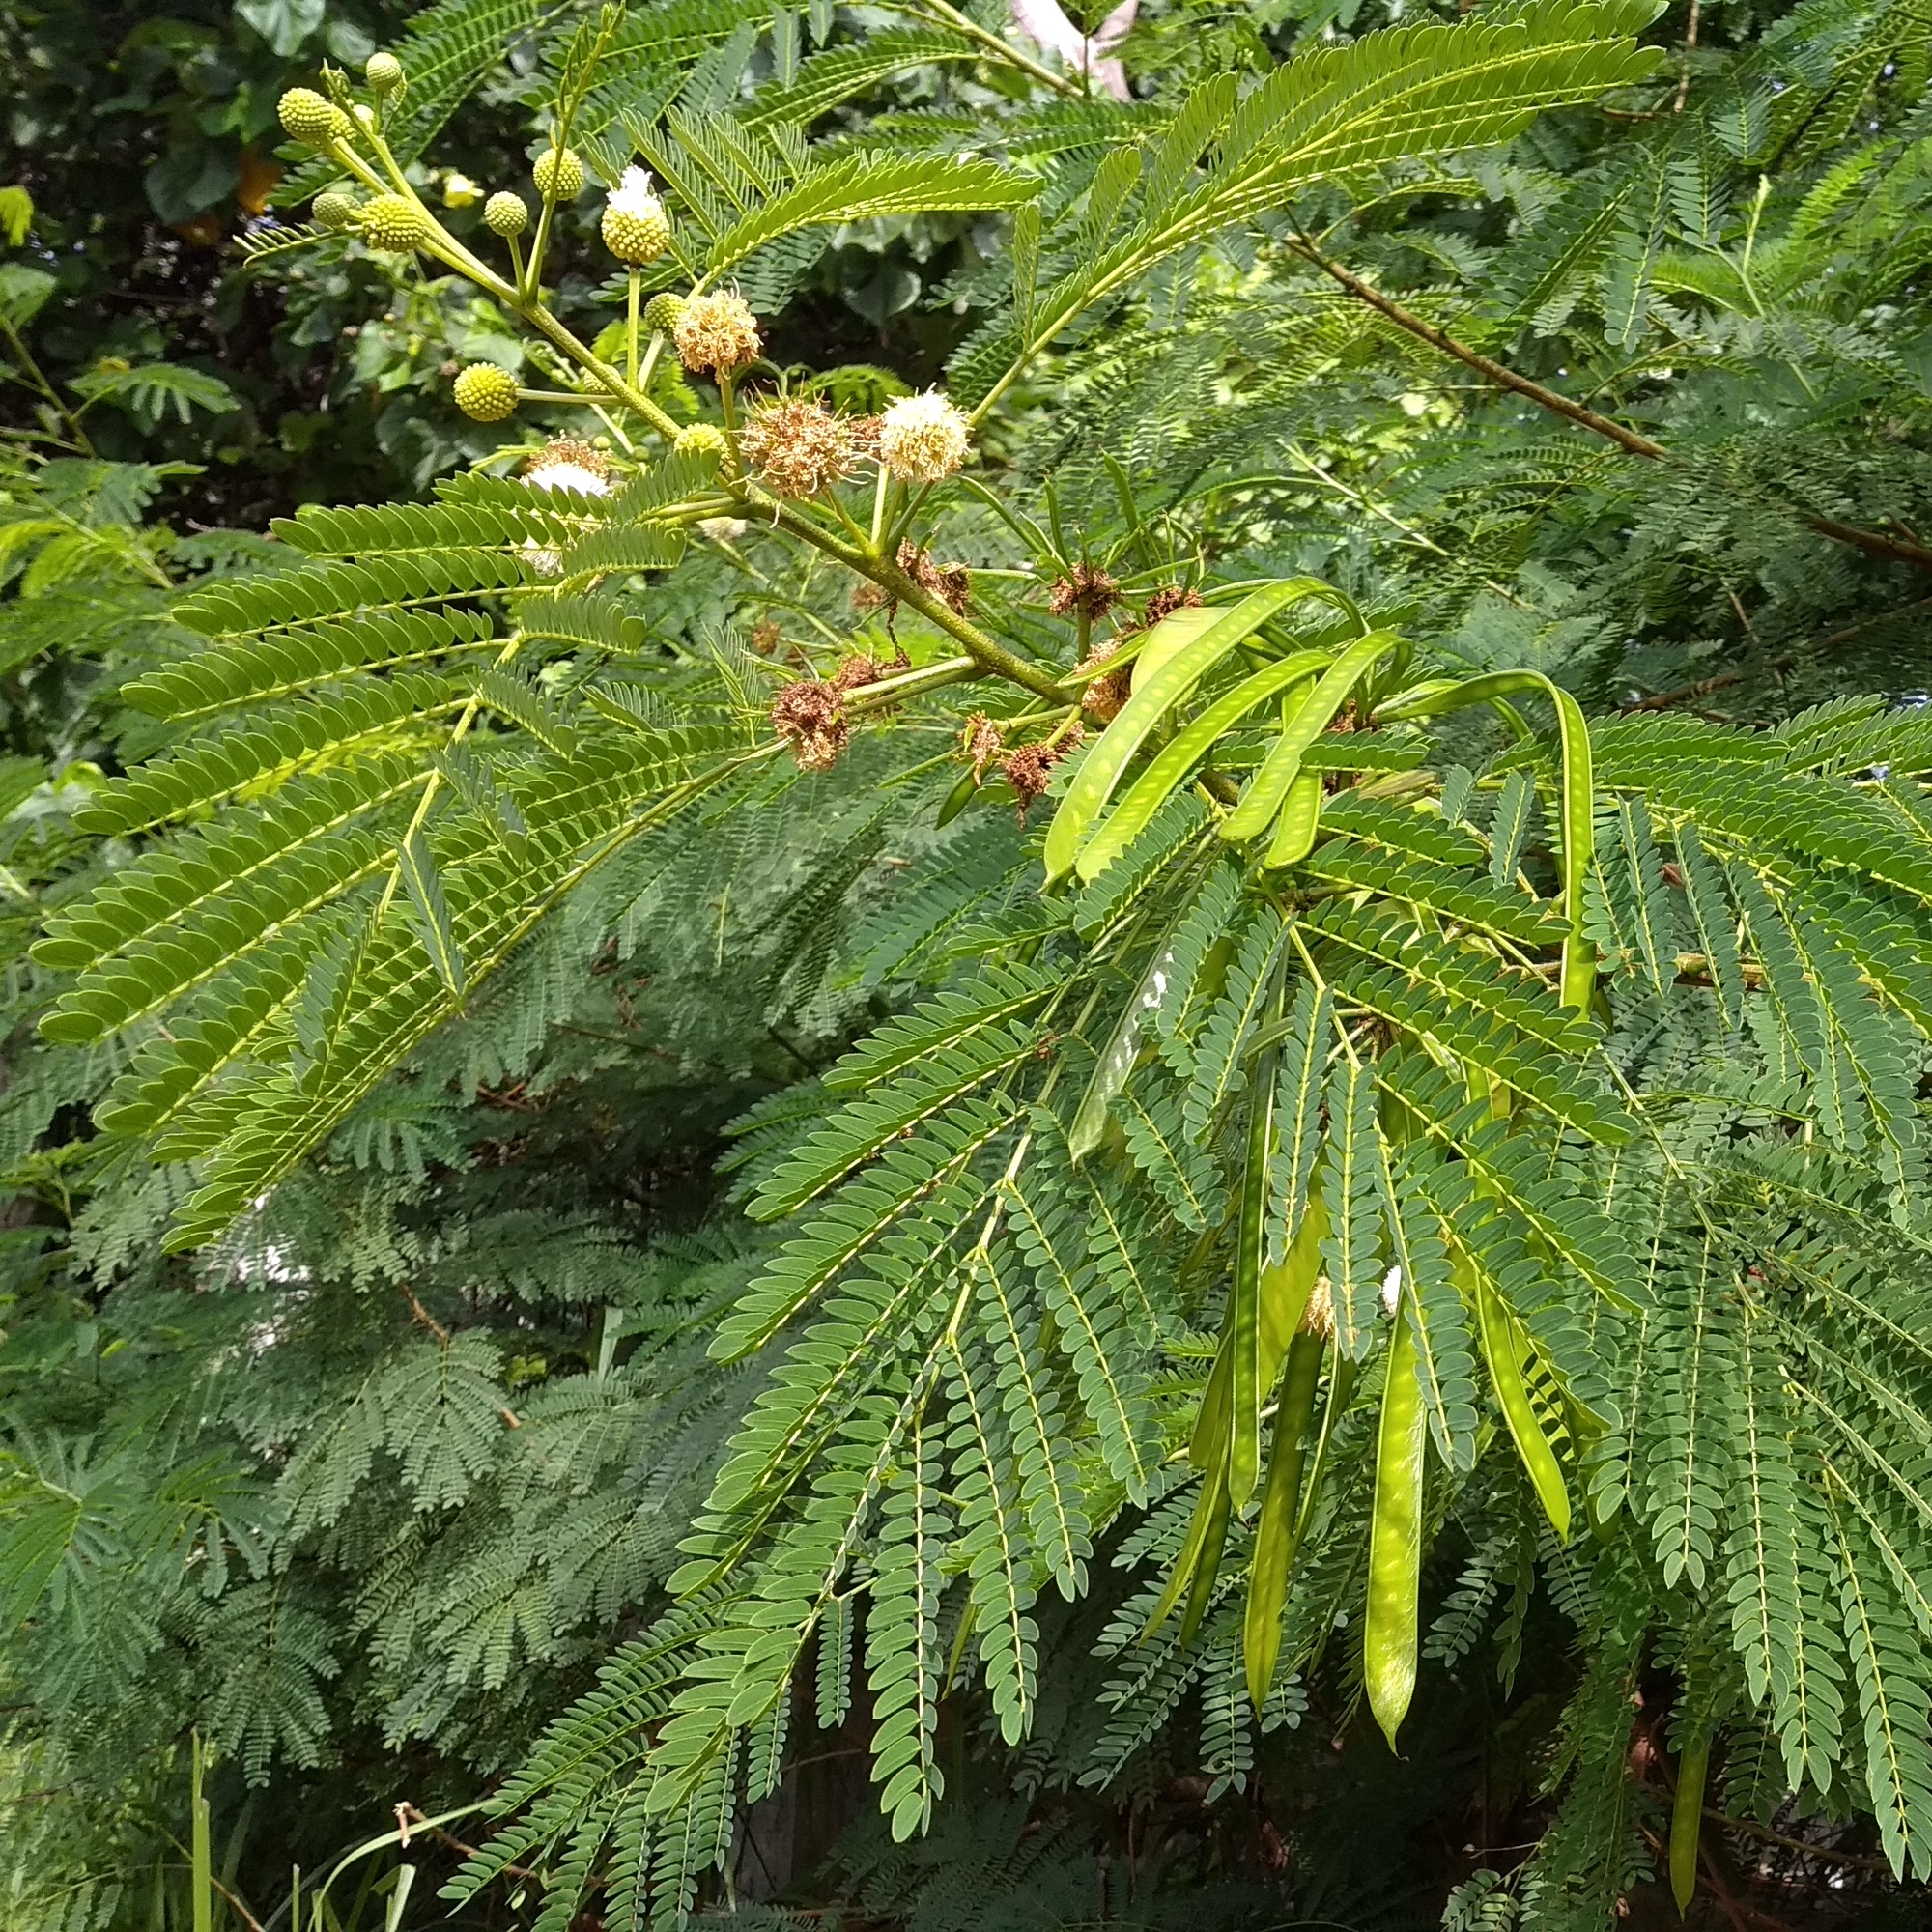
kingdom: Plantae
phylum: Tracheophyta
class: Magnoliopsida
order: Fabales
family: Fabaceae
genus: Leucaena
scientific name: Leucaena leucocephala
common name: White leadtree
